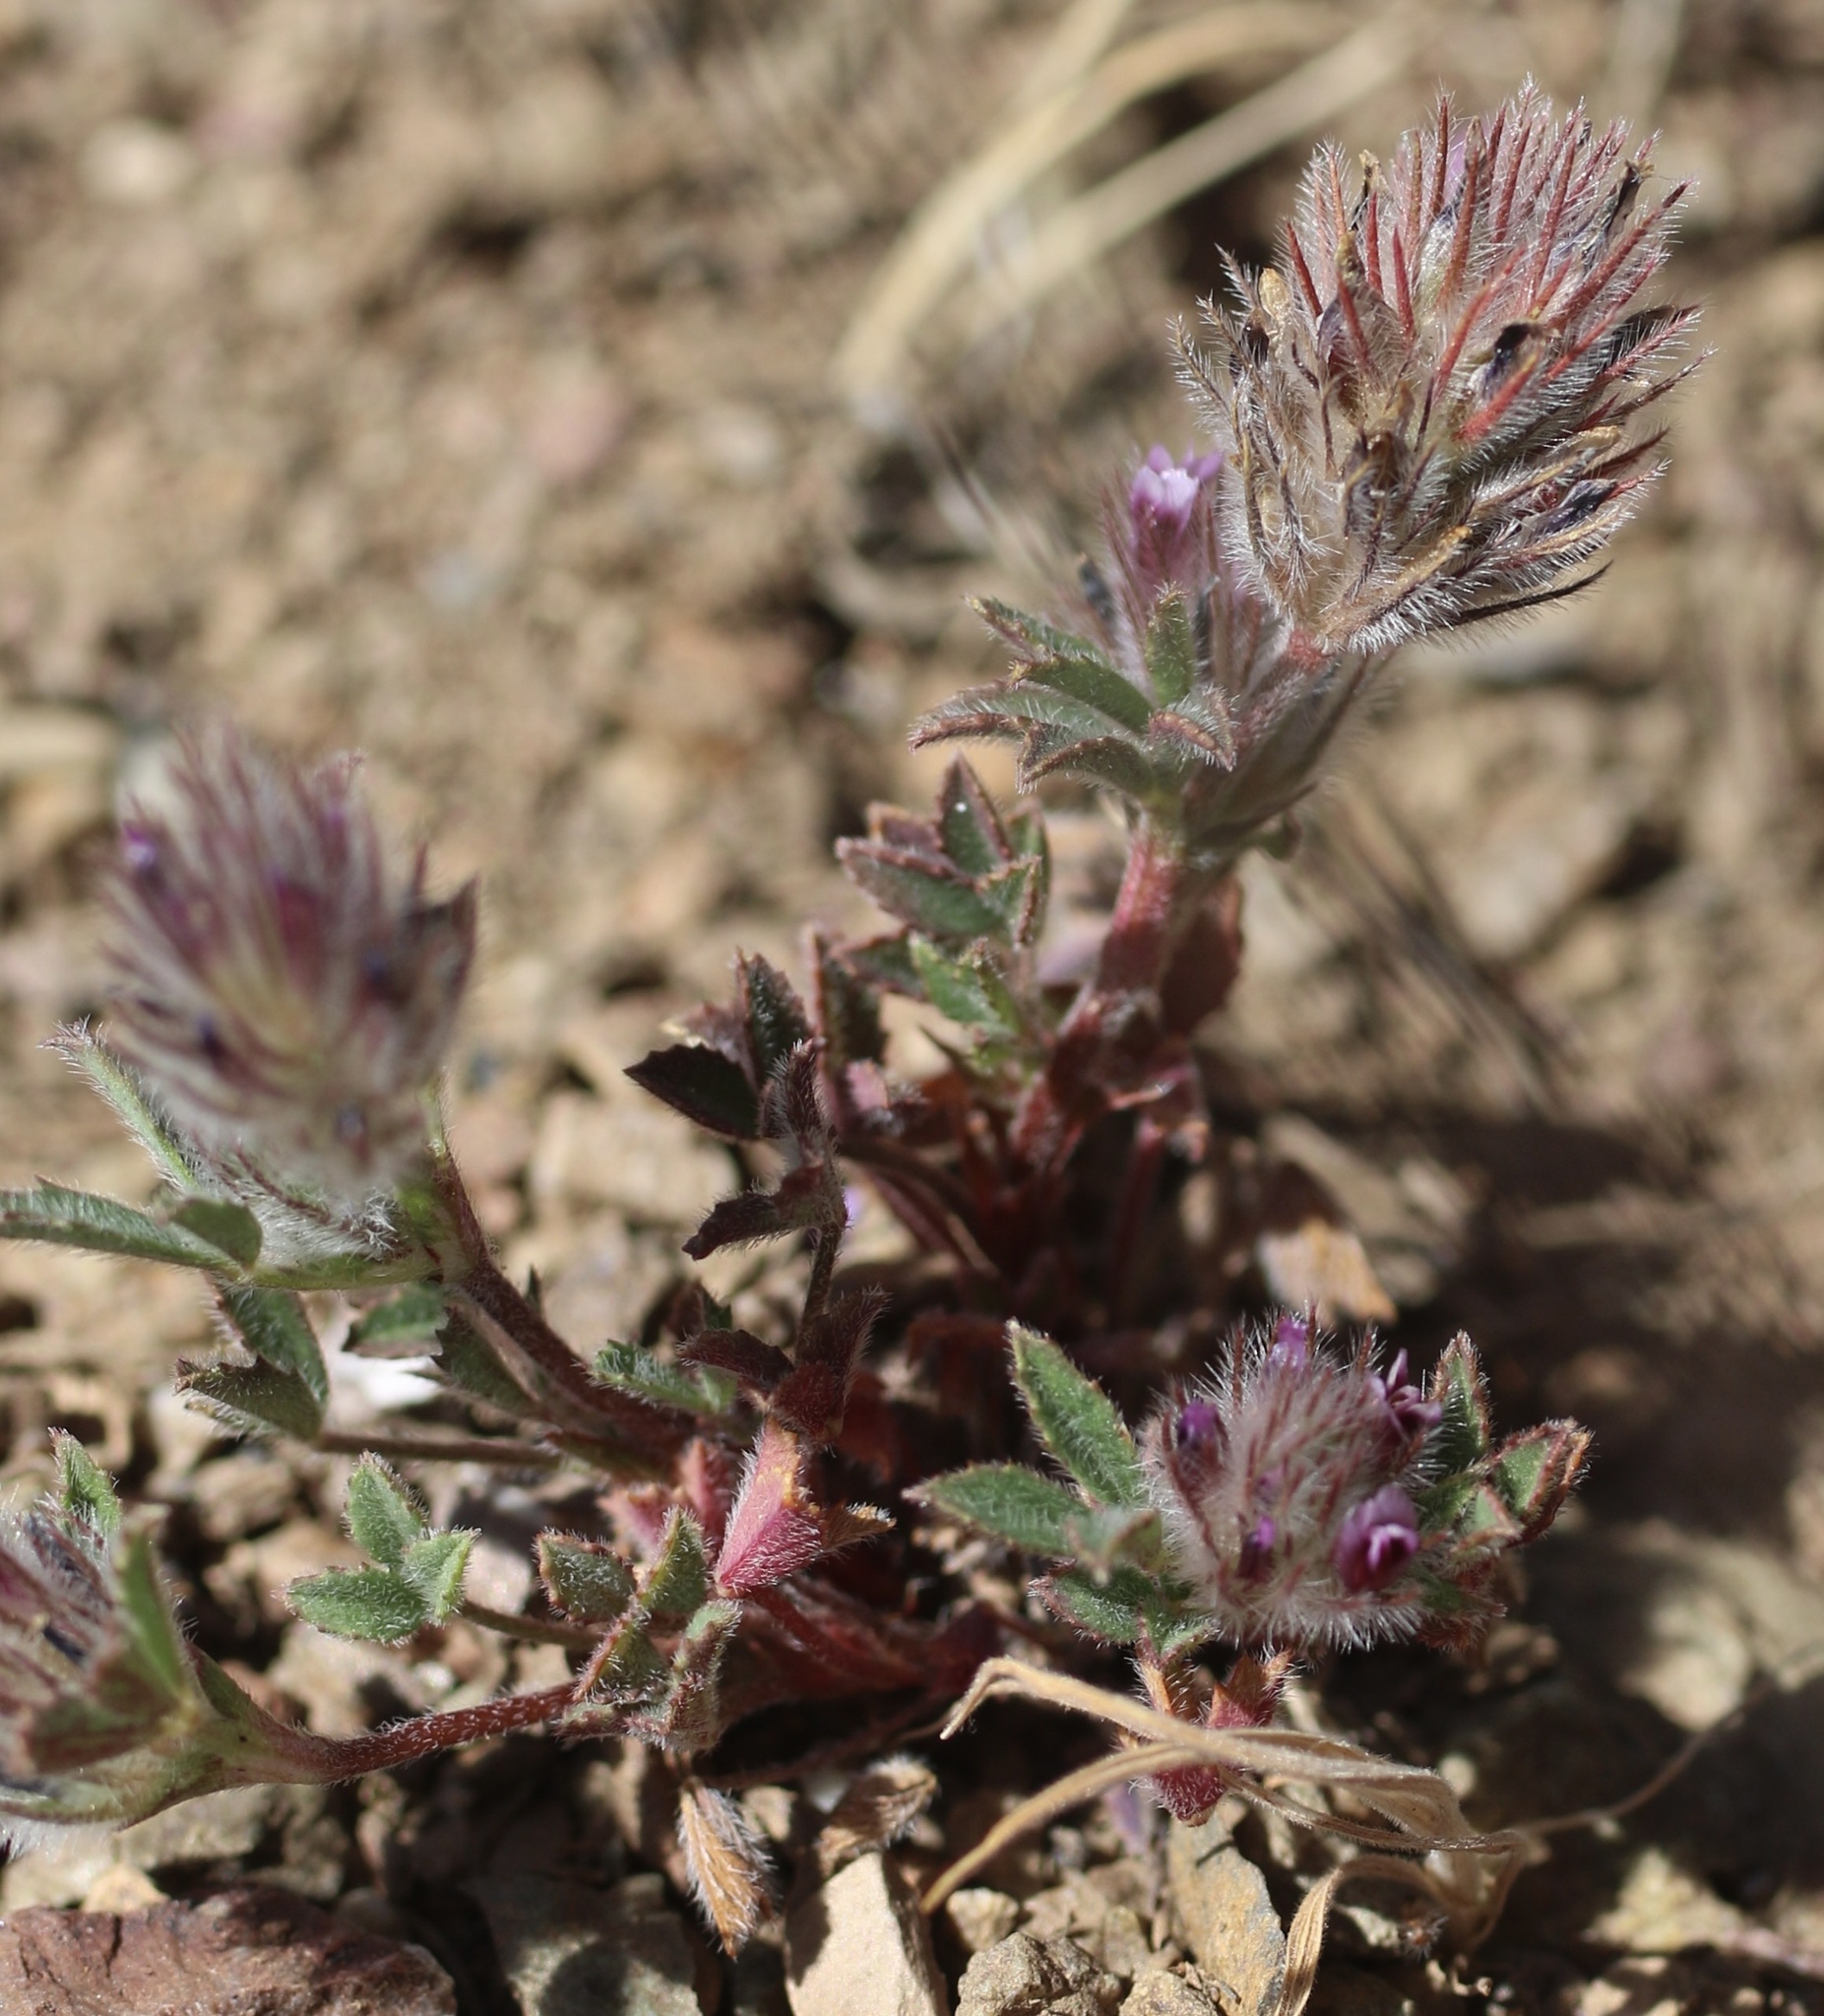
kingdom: Plantae
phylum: Tracheophyta
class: Magnoliopsida
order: Fabales
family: Fabaceae
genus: Trifolium
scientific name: Trifolium albopurpureum
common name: Rancheria clover
